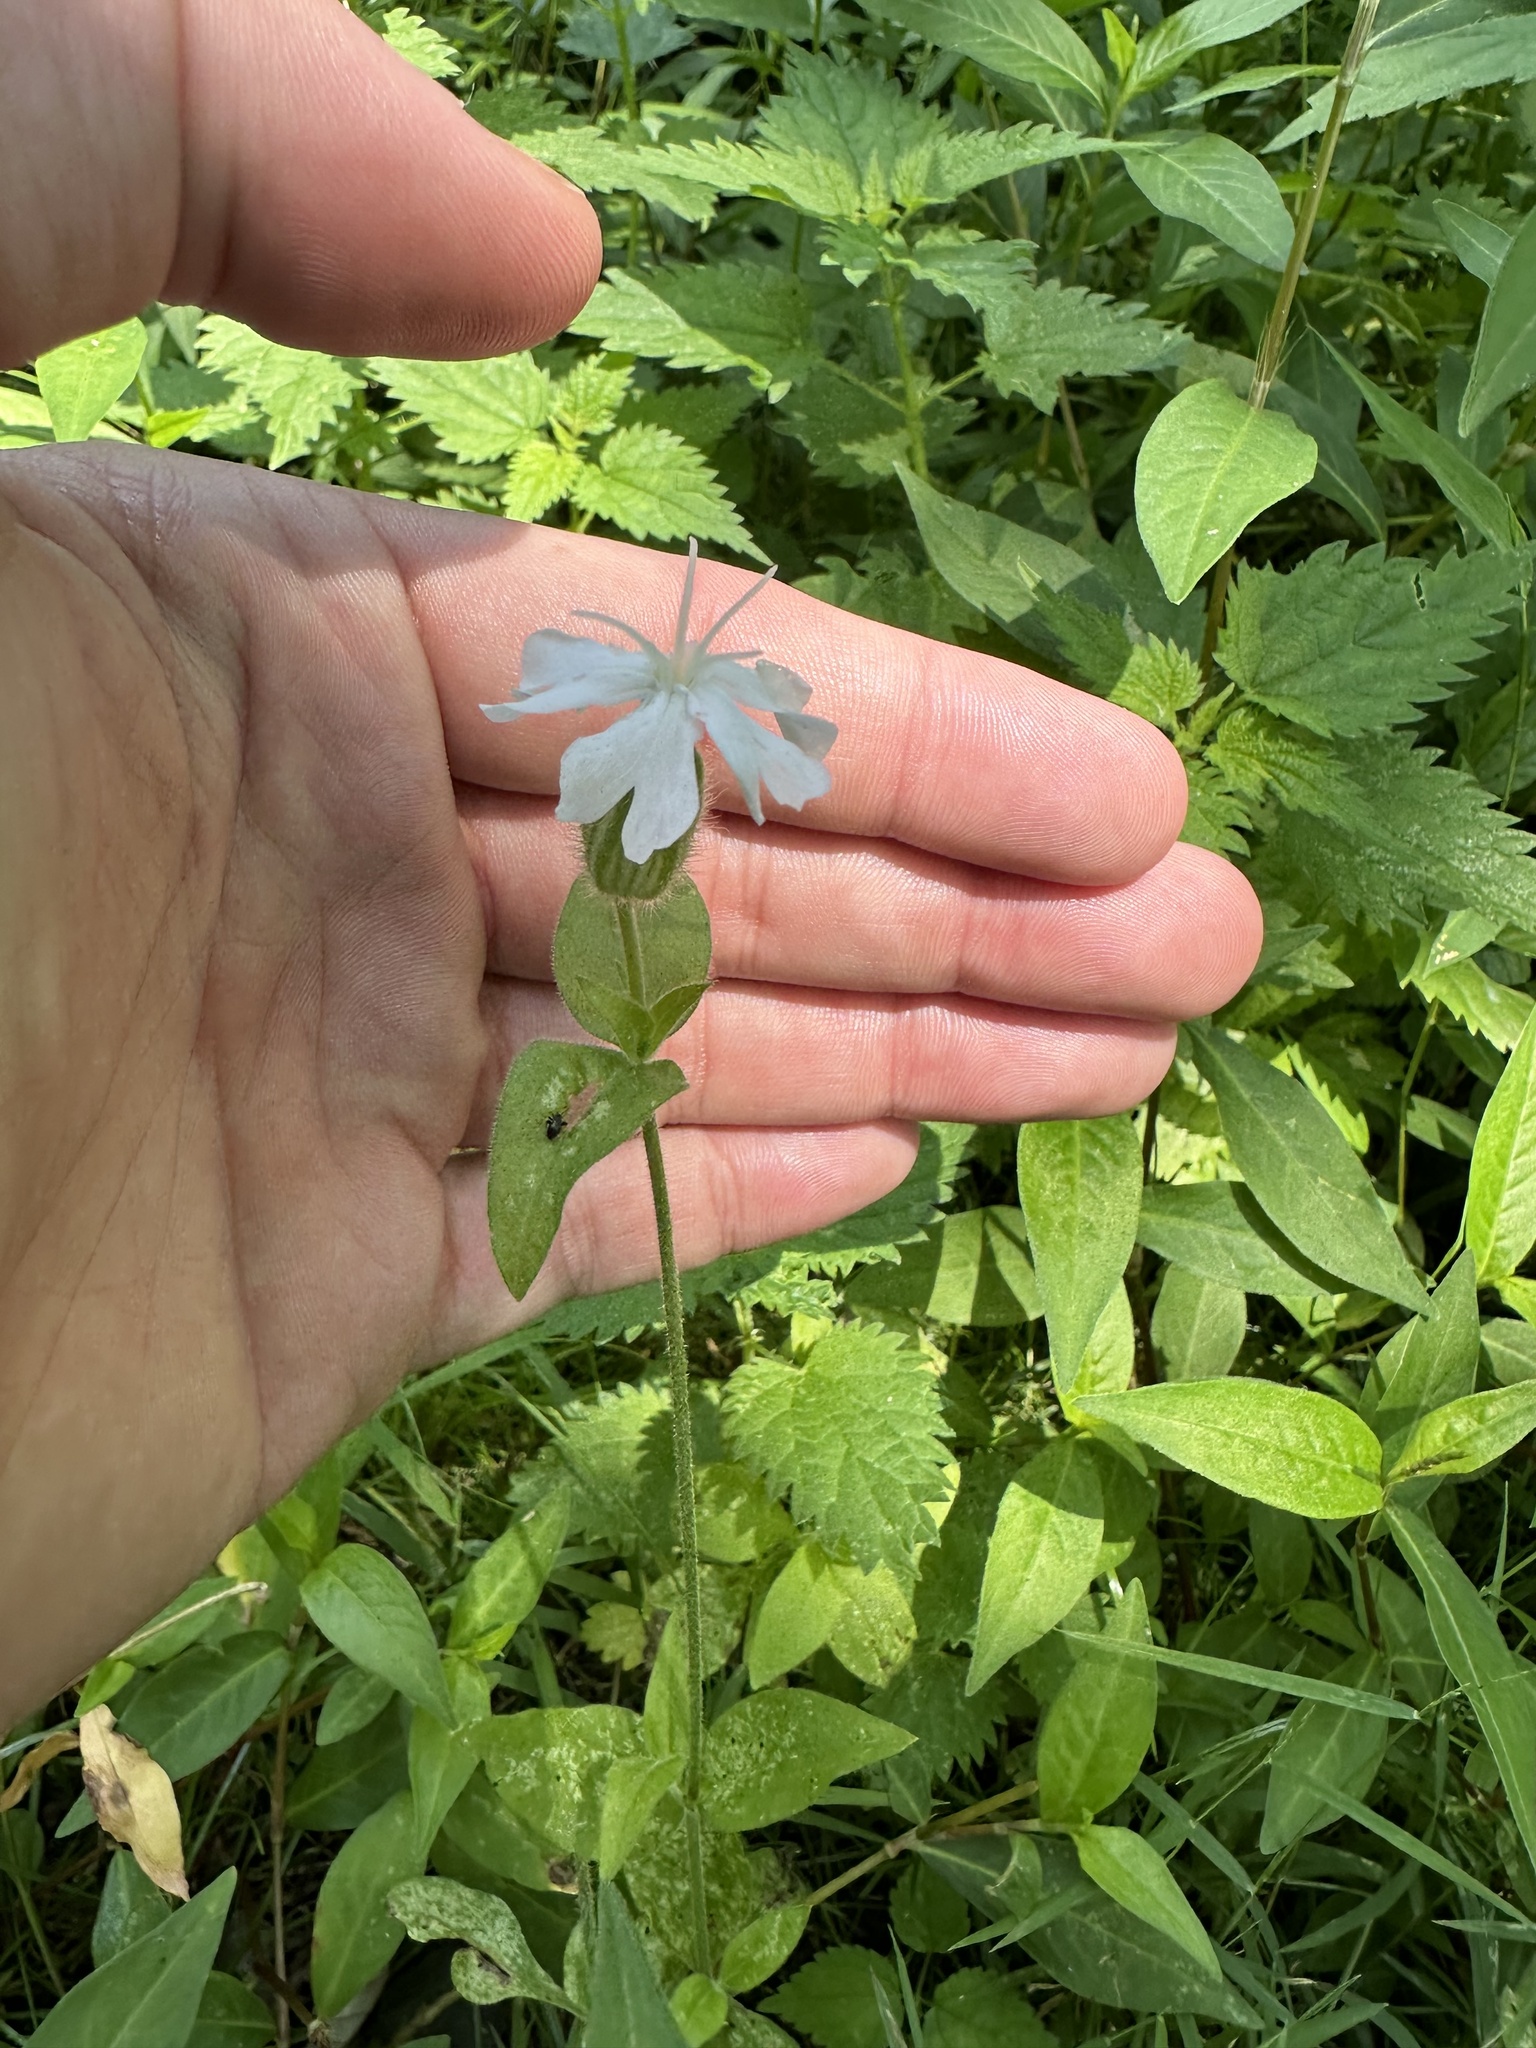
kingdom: Plantae
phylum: Tracheophyta
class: Magnoliopsida
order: Caryophyllales
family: Caryophyllaceae
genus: Silene
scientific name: Silene latifolia
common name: White campion
